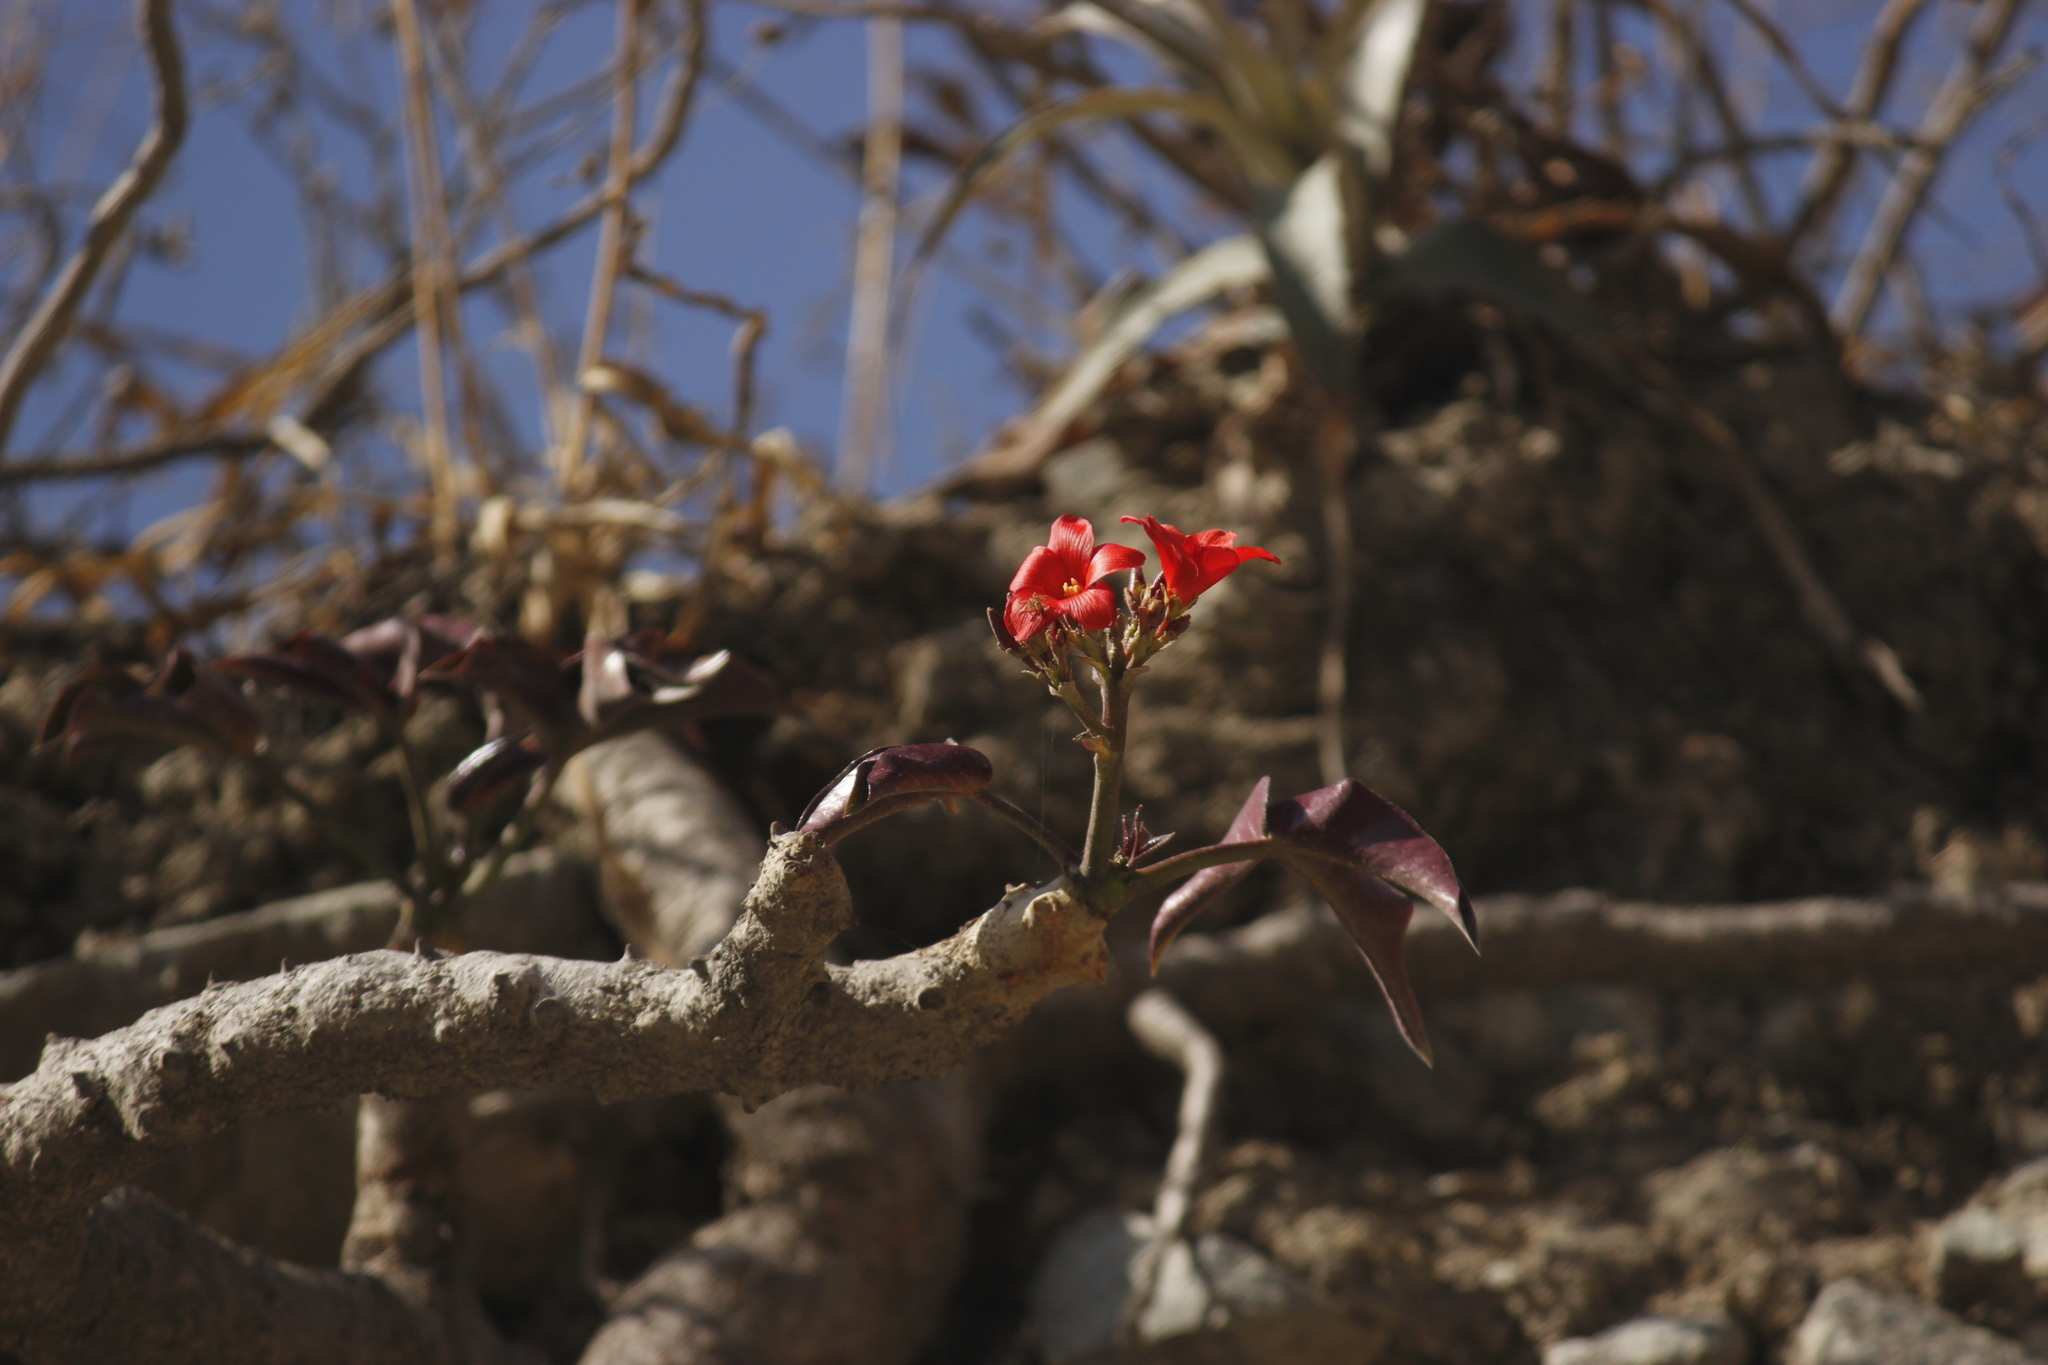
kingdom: Plantae
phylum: Tracheophyta
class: Magnoliopsida
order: Malpighiales
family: Euphorbiaceae
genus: Jatropha
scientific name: Jatropha macrantha
